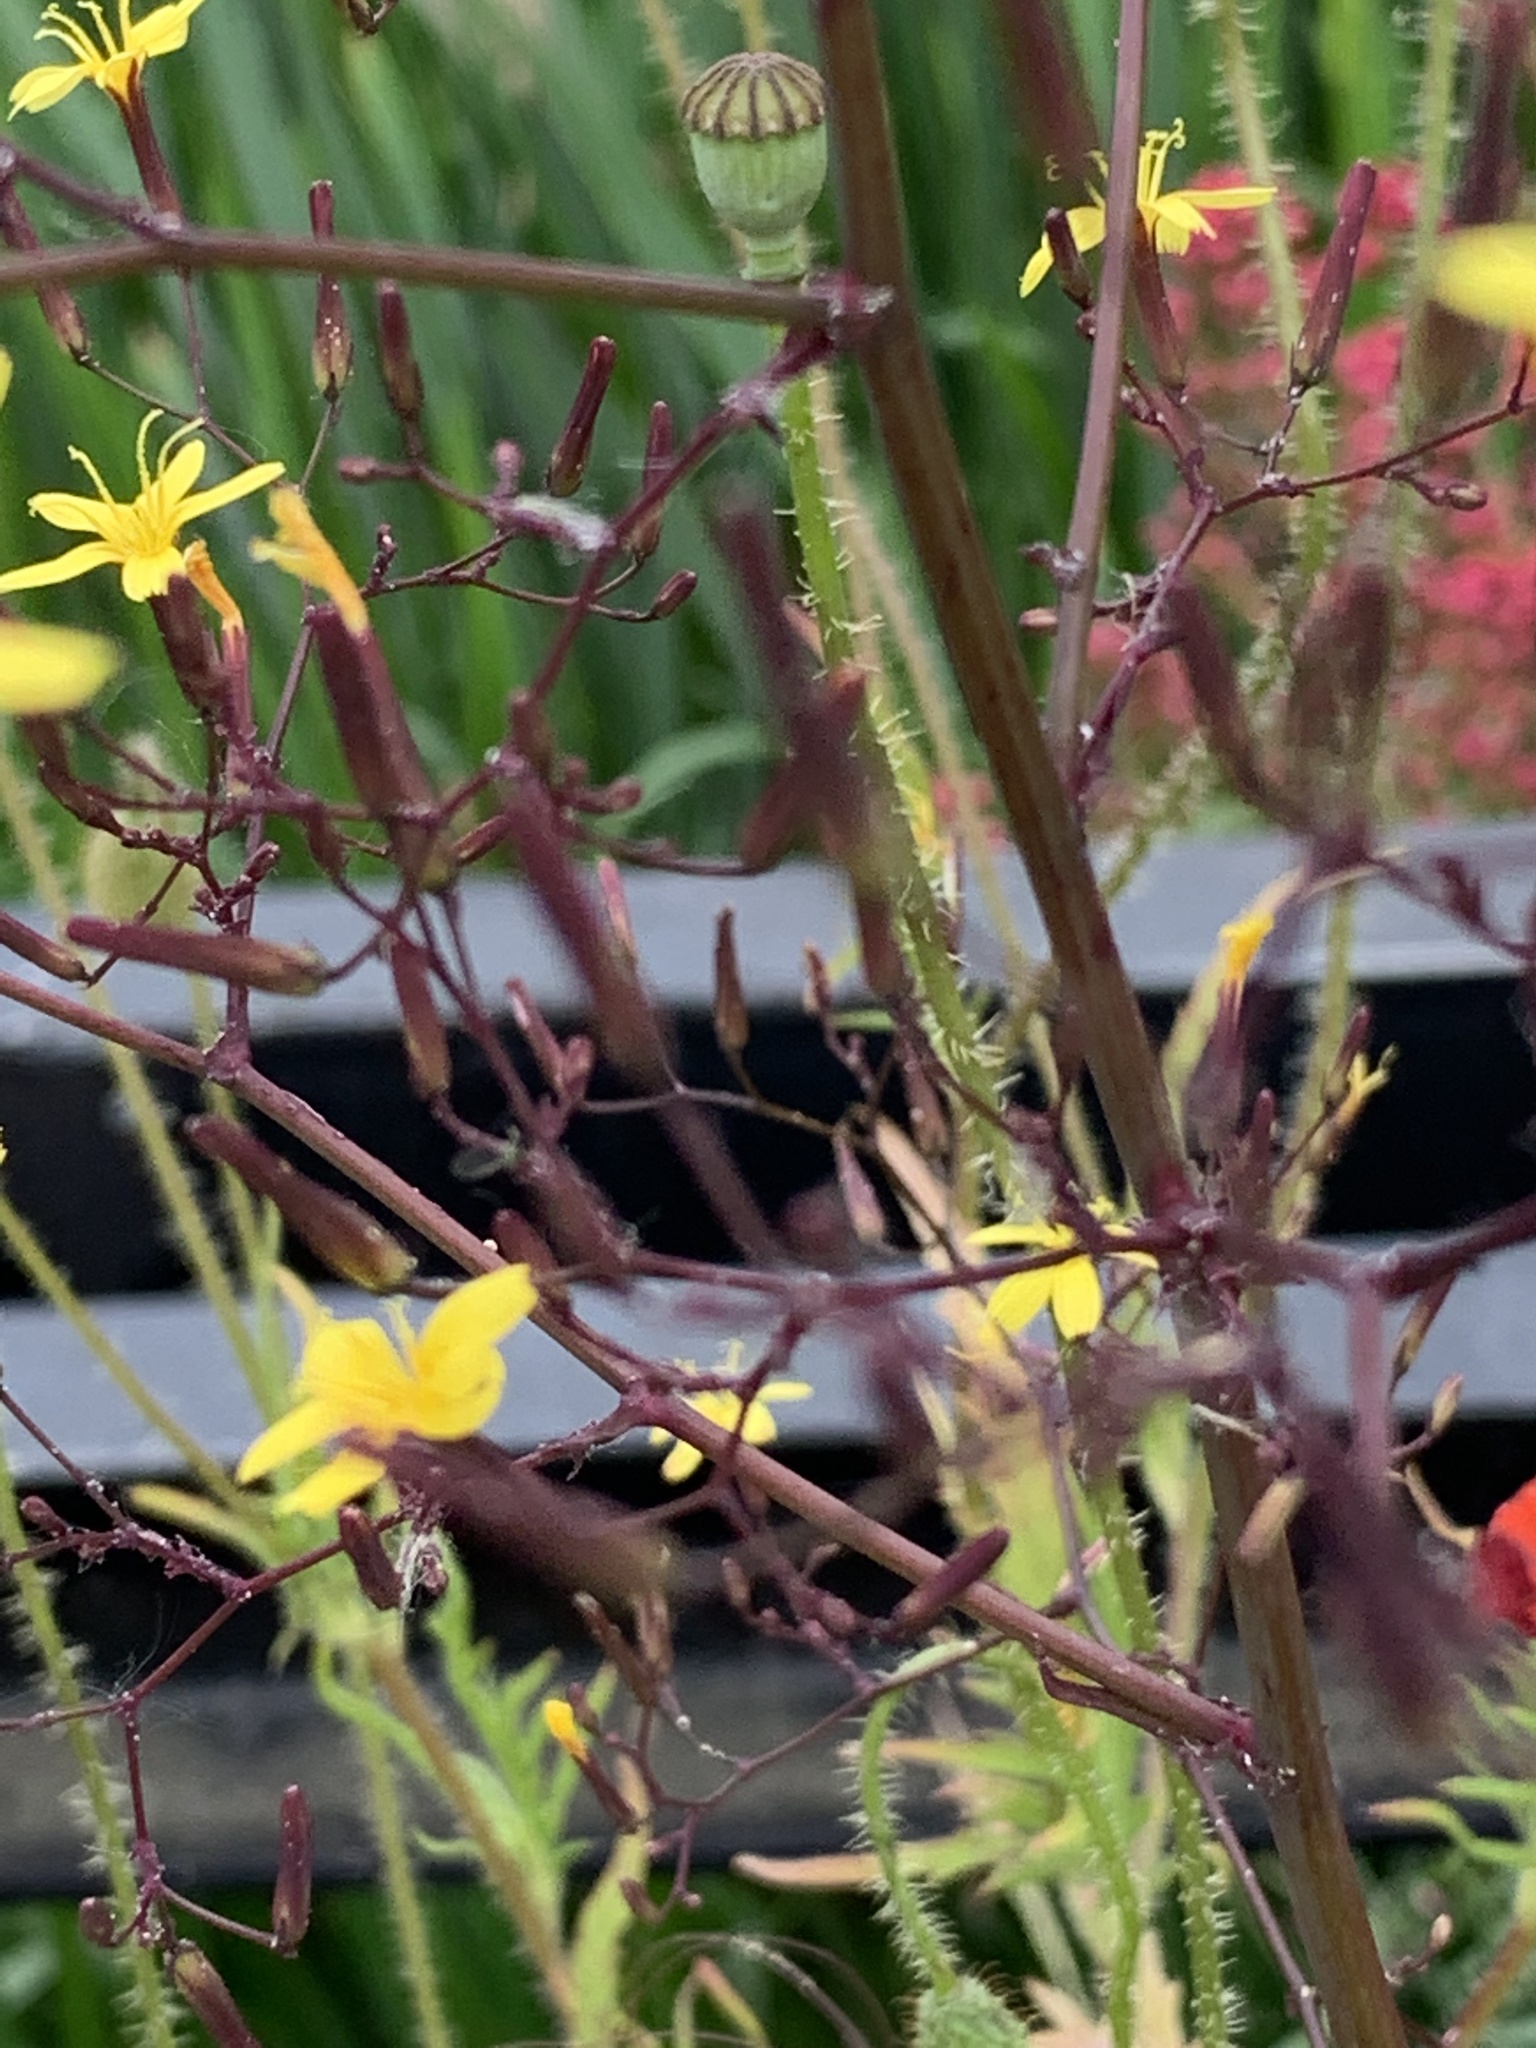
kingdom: Plantae
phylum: Tracheophyta
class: Magnoliopsida
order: Asterales
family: Asteraceae
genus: Mycelis
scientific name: Mycelis muralis
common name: Wall lettuce
